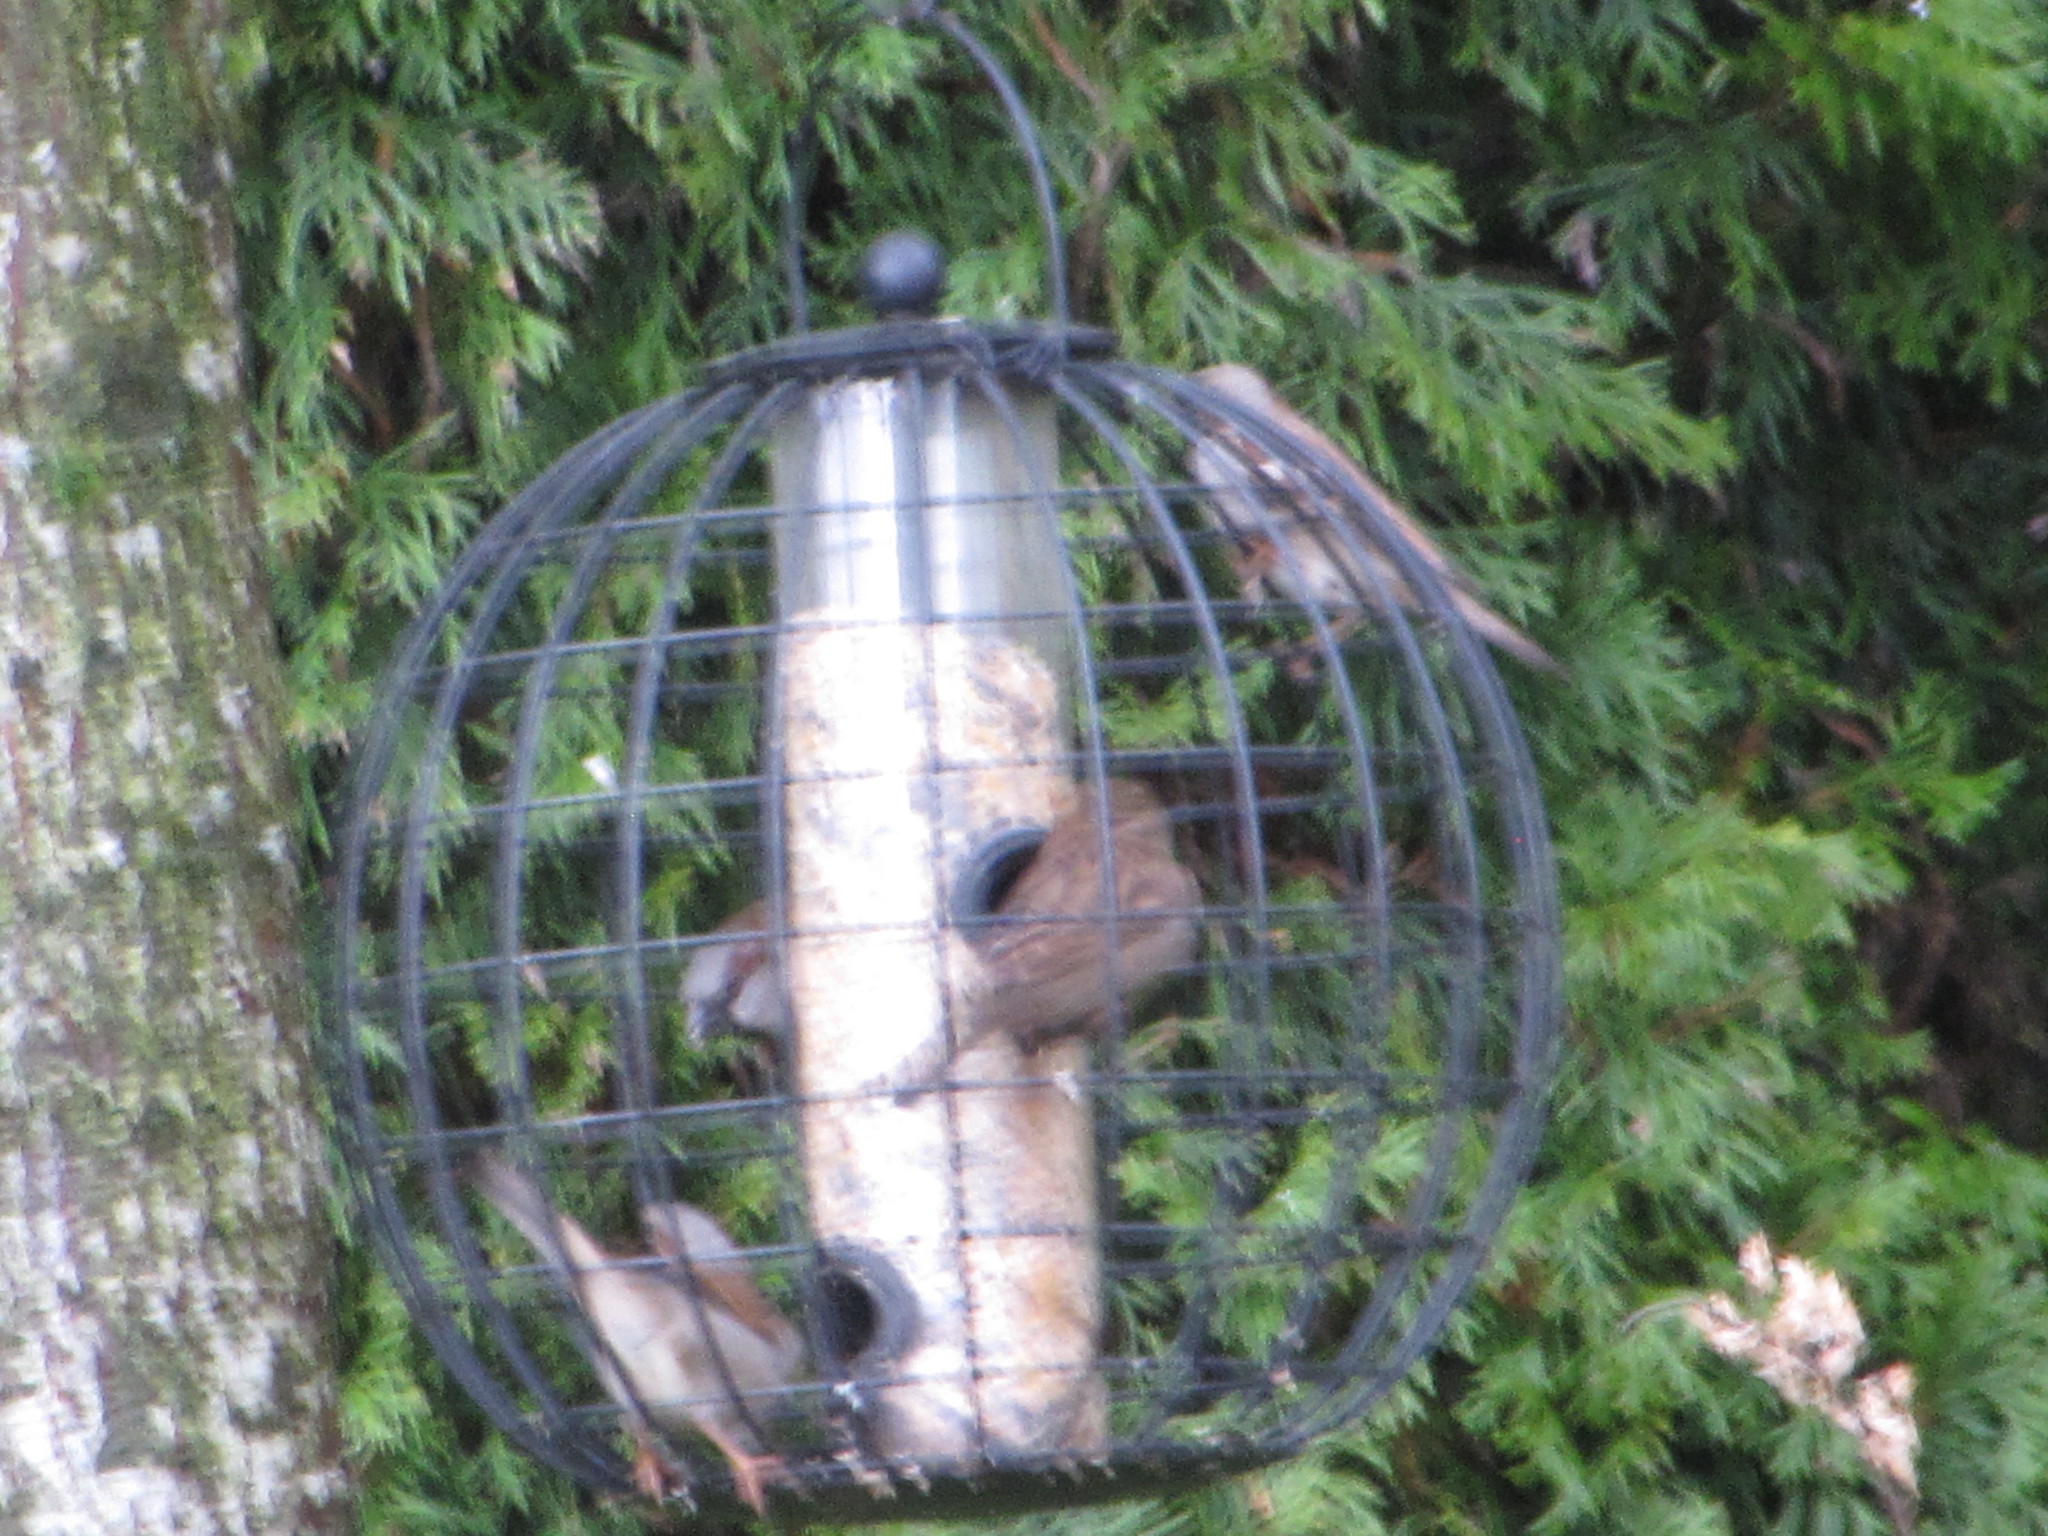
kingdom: Animalia
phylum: Chordata
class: Aves
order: Passeriformes
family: Passeridae
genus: Passer
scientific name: Passer domesticus
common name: House sparrow
